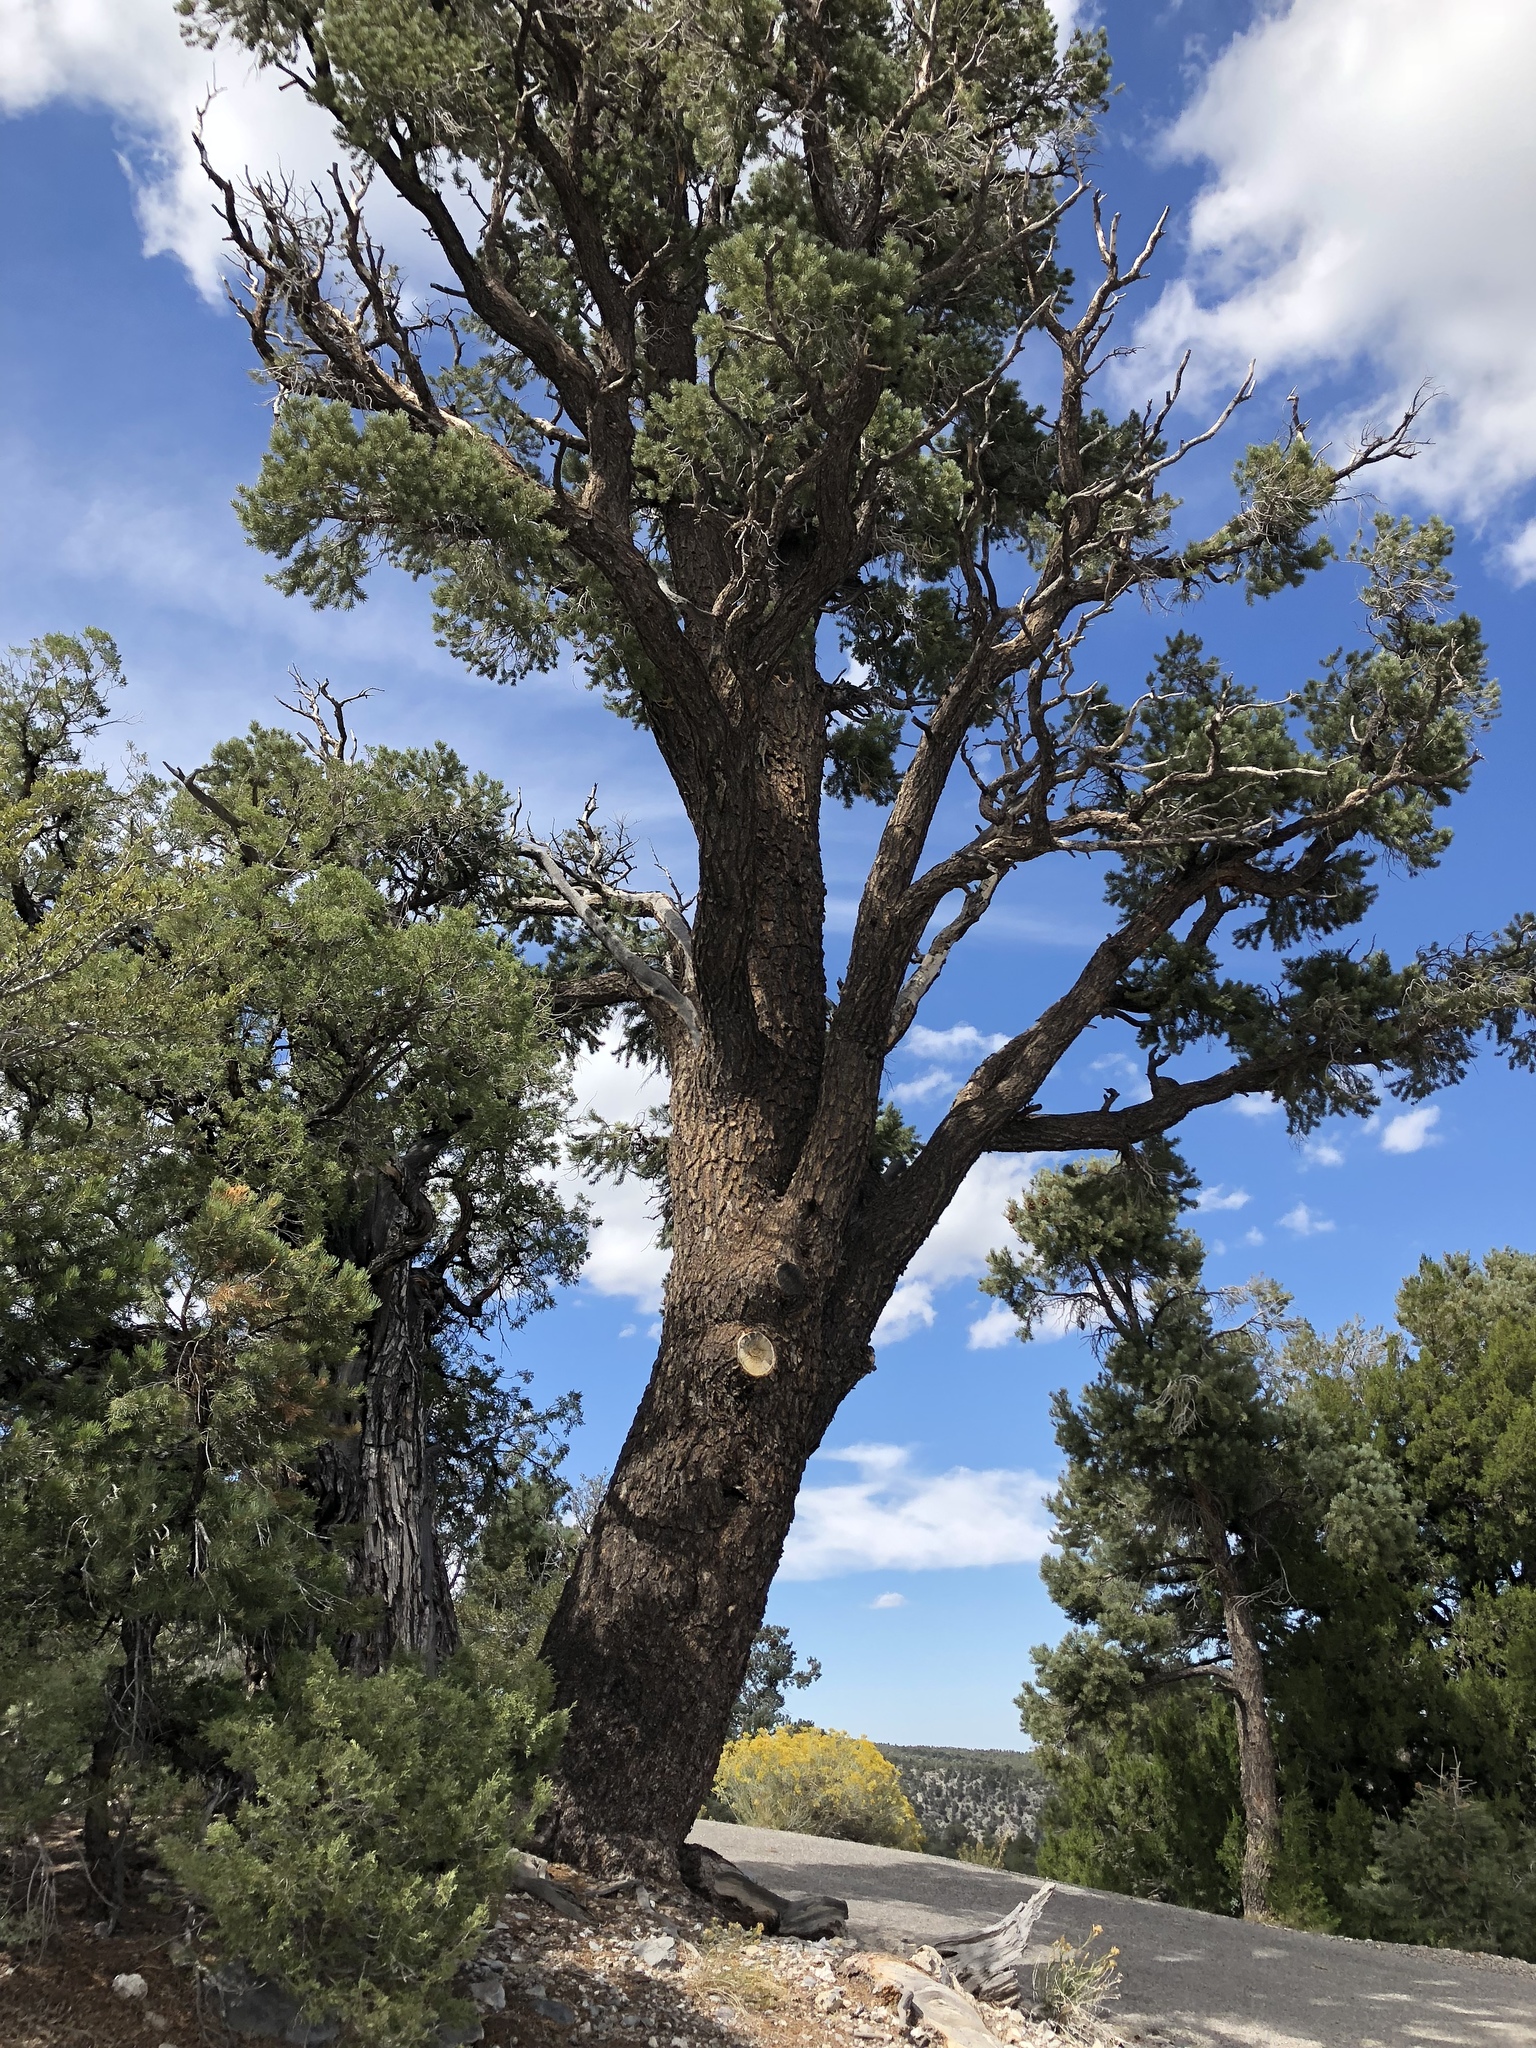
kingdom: Plantae
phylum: Tracheophyta
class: Pinopsida
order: Pinales
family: Pinaceae
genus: Pinus
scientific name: Pinus monophylla
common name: One-leaved nut pine
